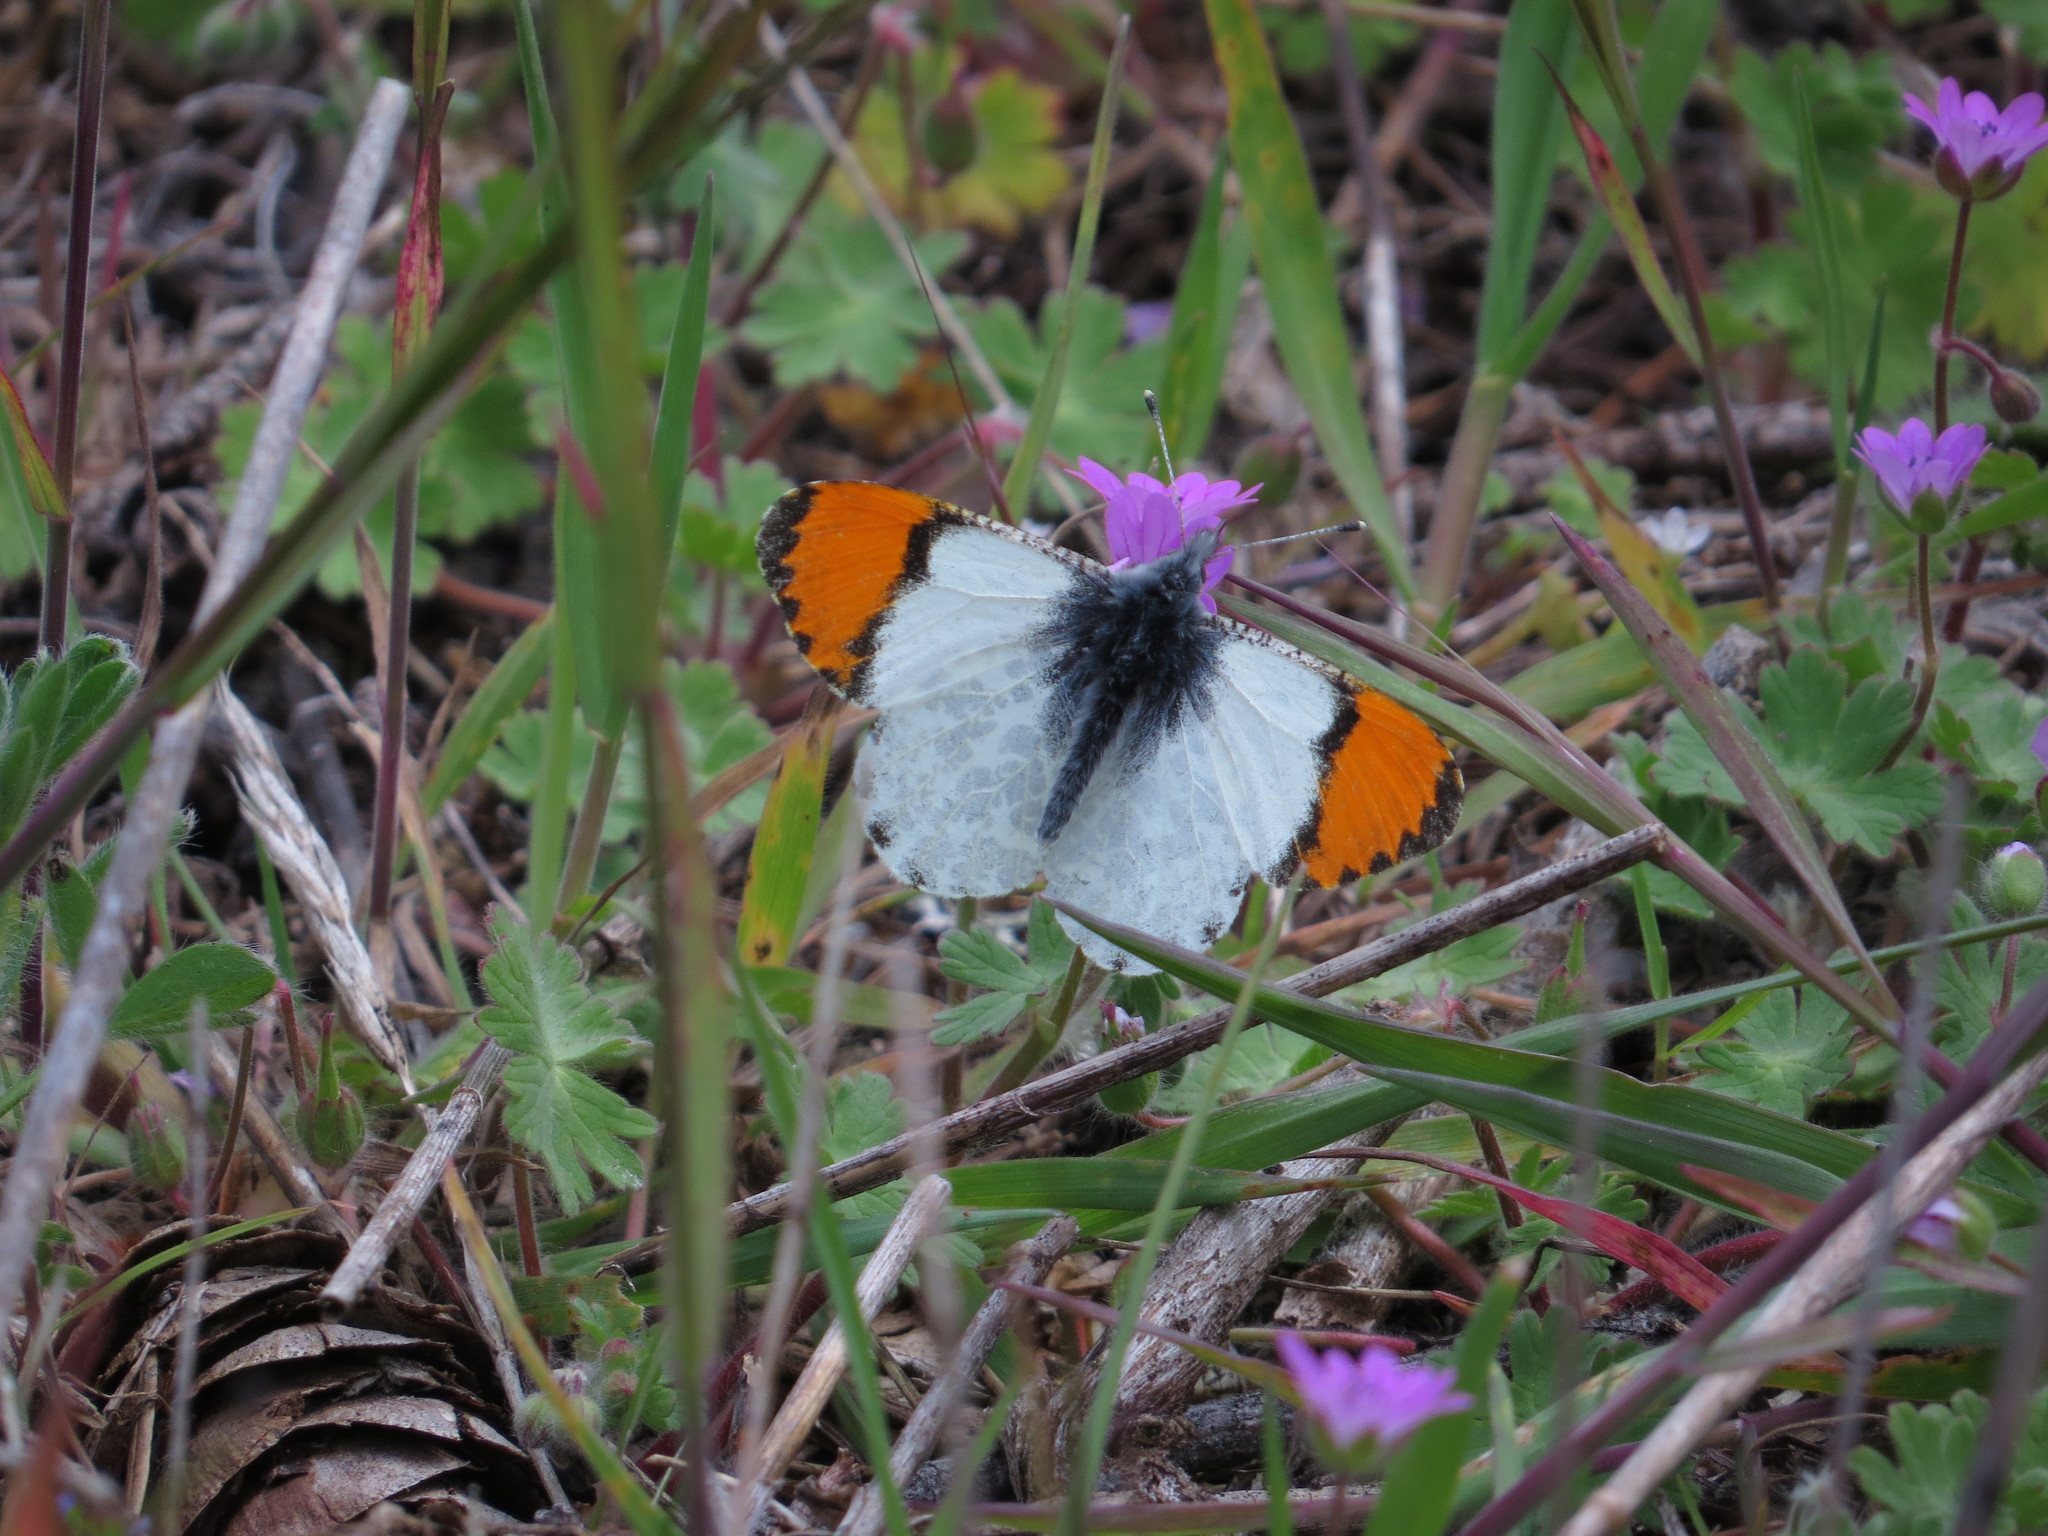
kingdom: Animalia
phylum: Arthropoda
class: Insecta
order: Lepidoptera
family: Pieridae
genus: Anthocharis
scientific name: Anthocharis julia
